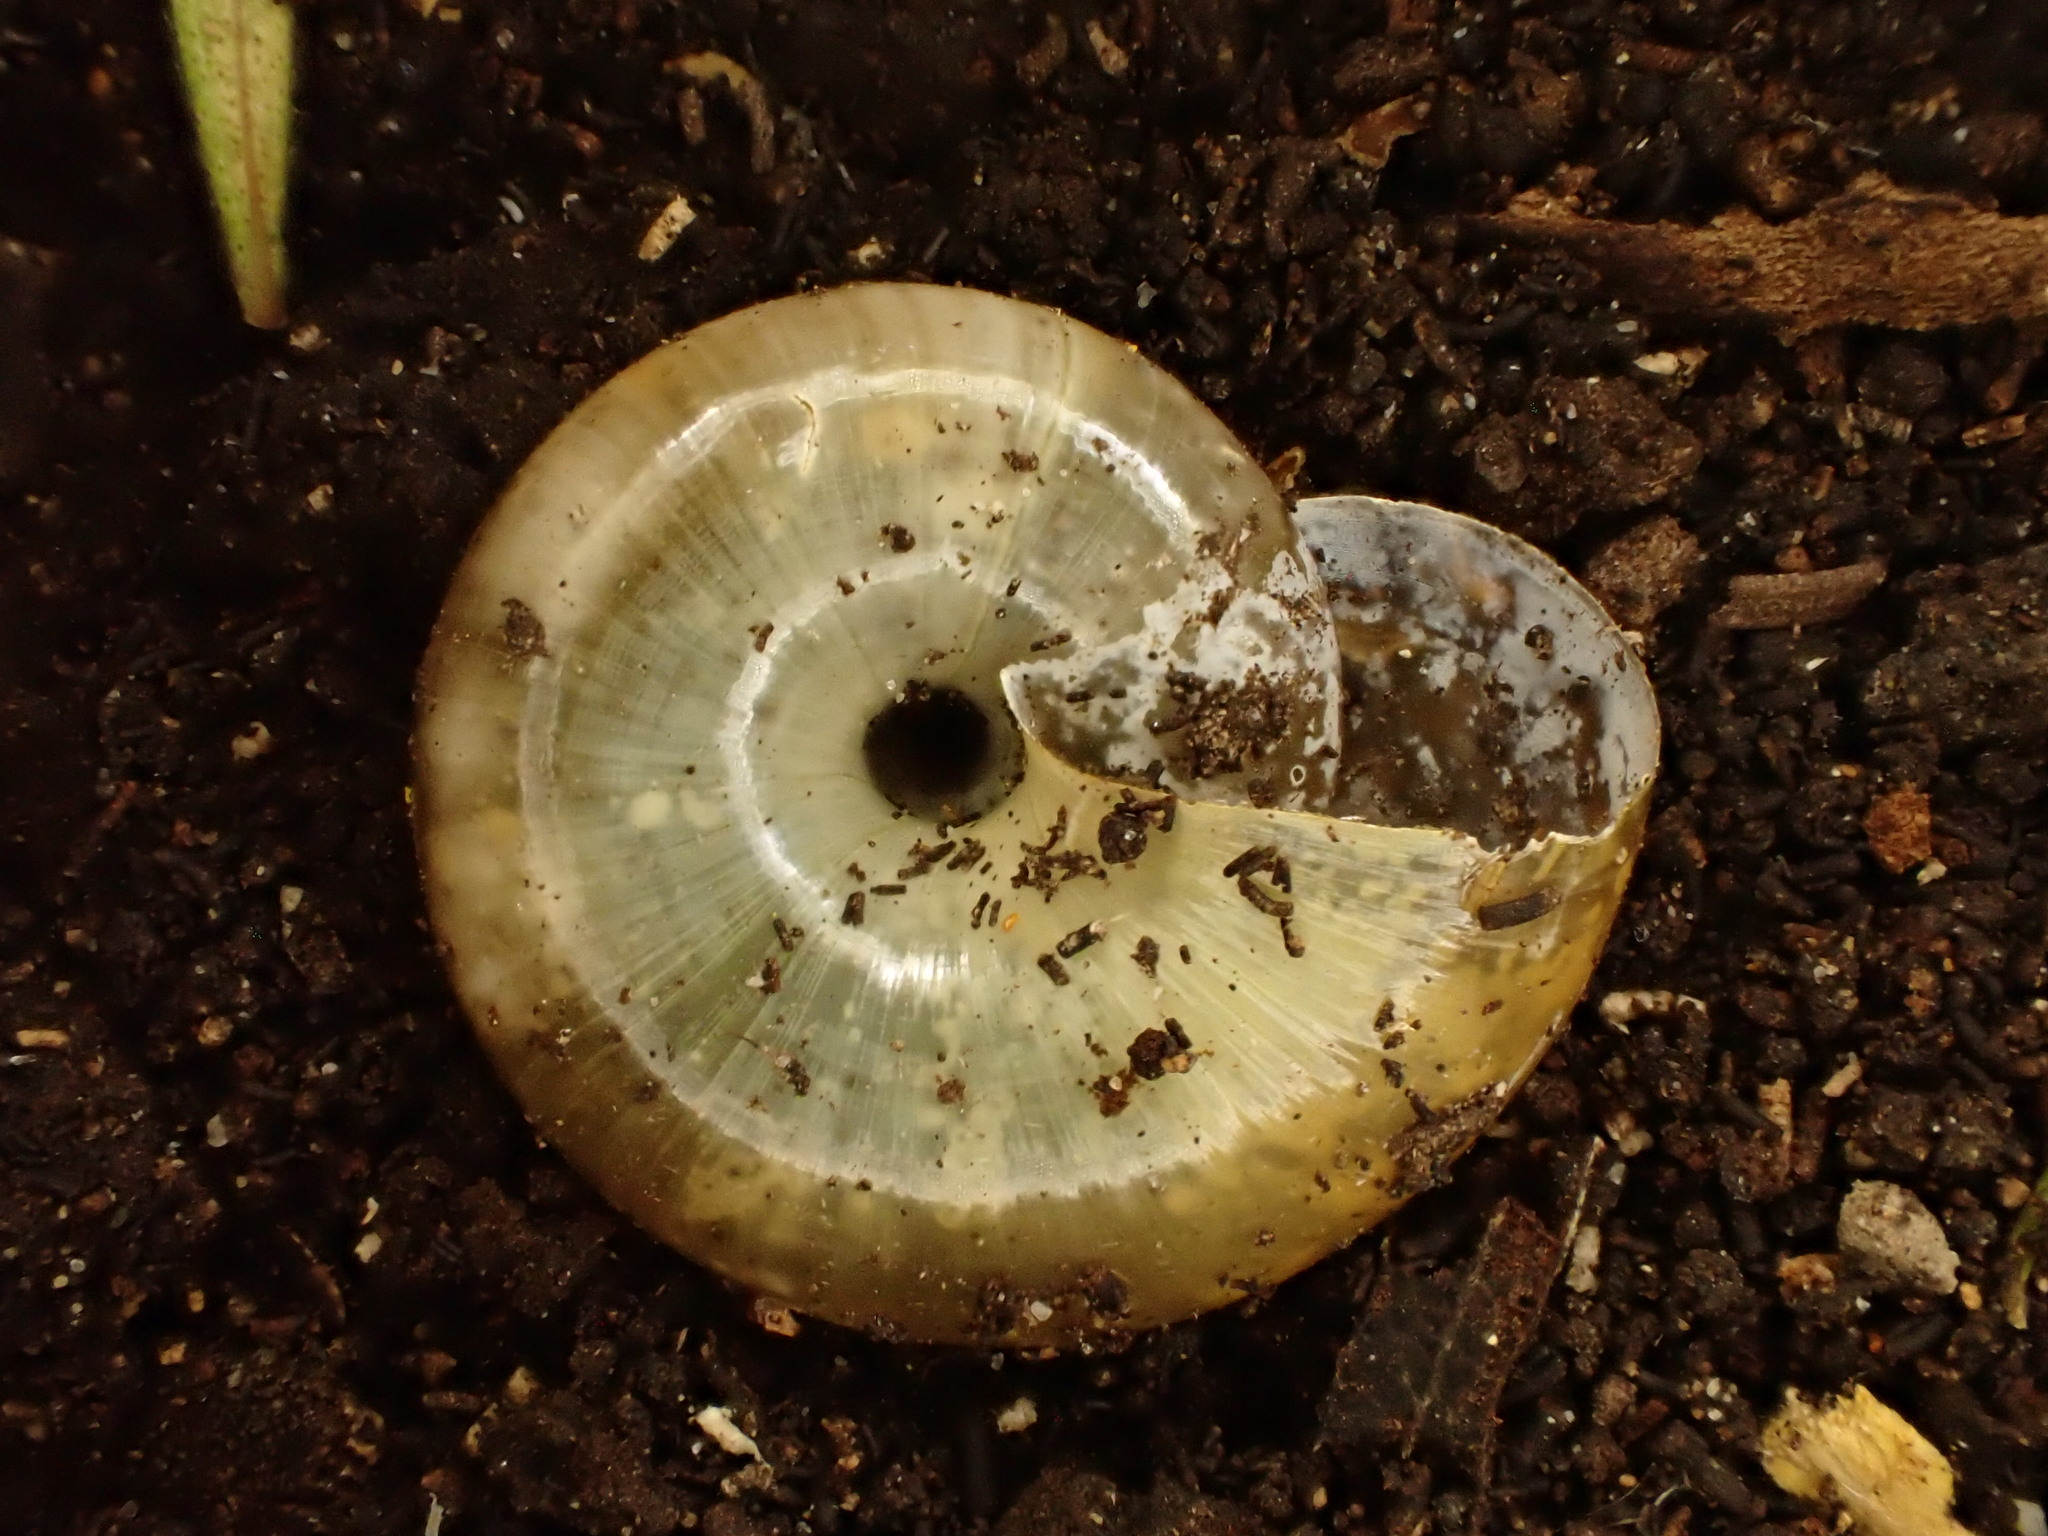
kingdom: Animalia
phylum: Mollusca
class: Gastropoda
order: Stylommatophora
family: Oxychilidae
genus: Oxychilus
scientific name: Oxychilus draparnaudi
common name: Draparnaud's glass snail
